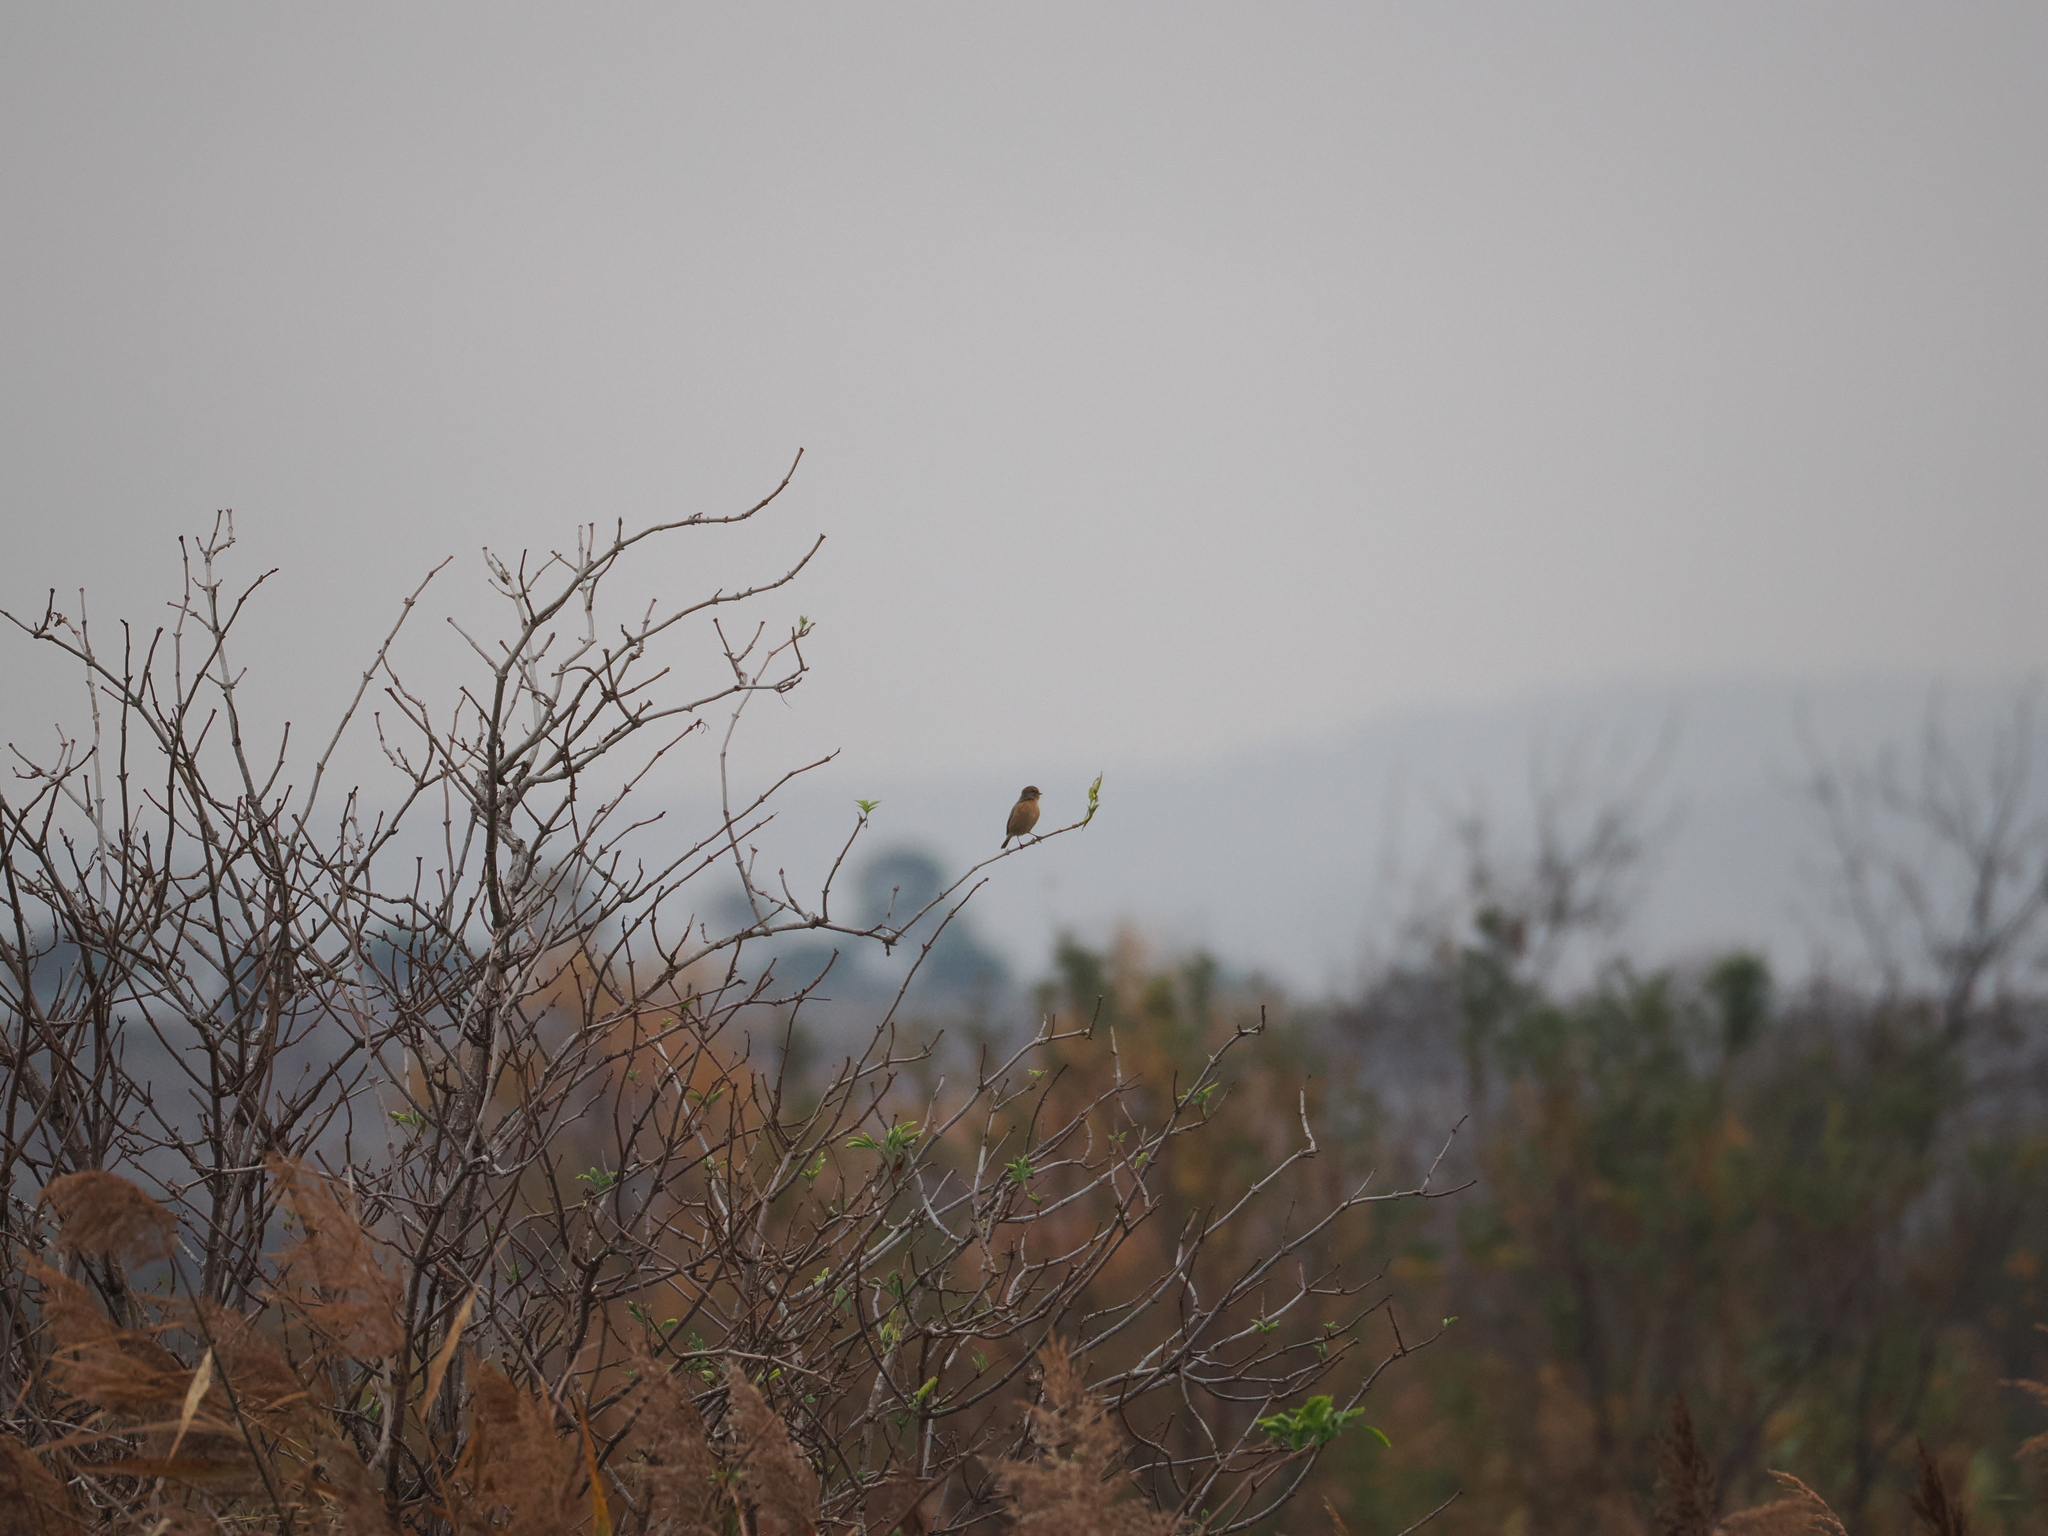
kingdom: Animalia
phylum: Chordata
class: Aves
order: Passeriformes
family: Muscicapidae
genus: Saxicola
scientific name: Saxicola rubicola
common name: European stonechat
